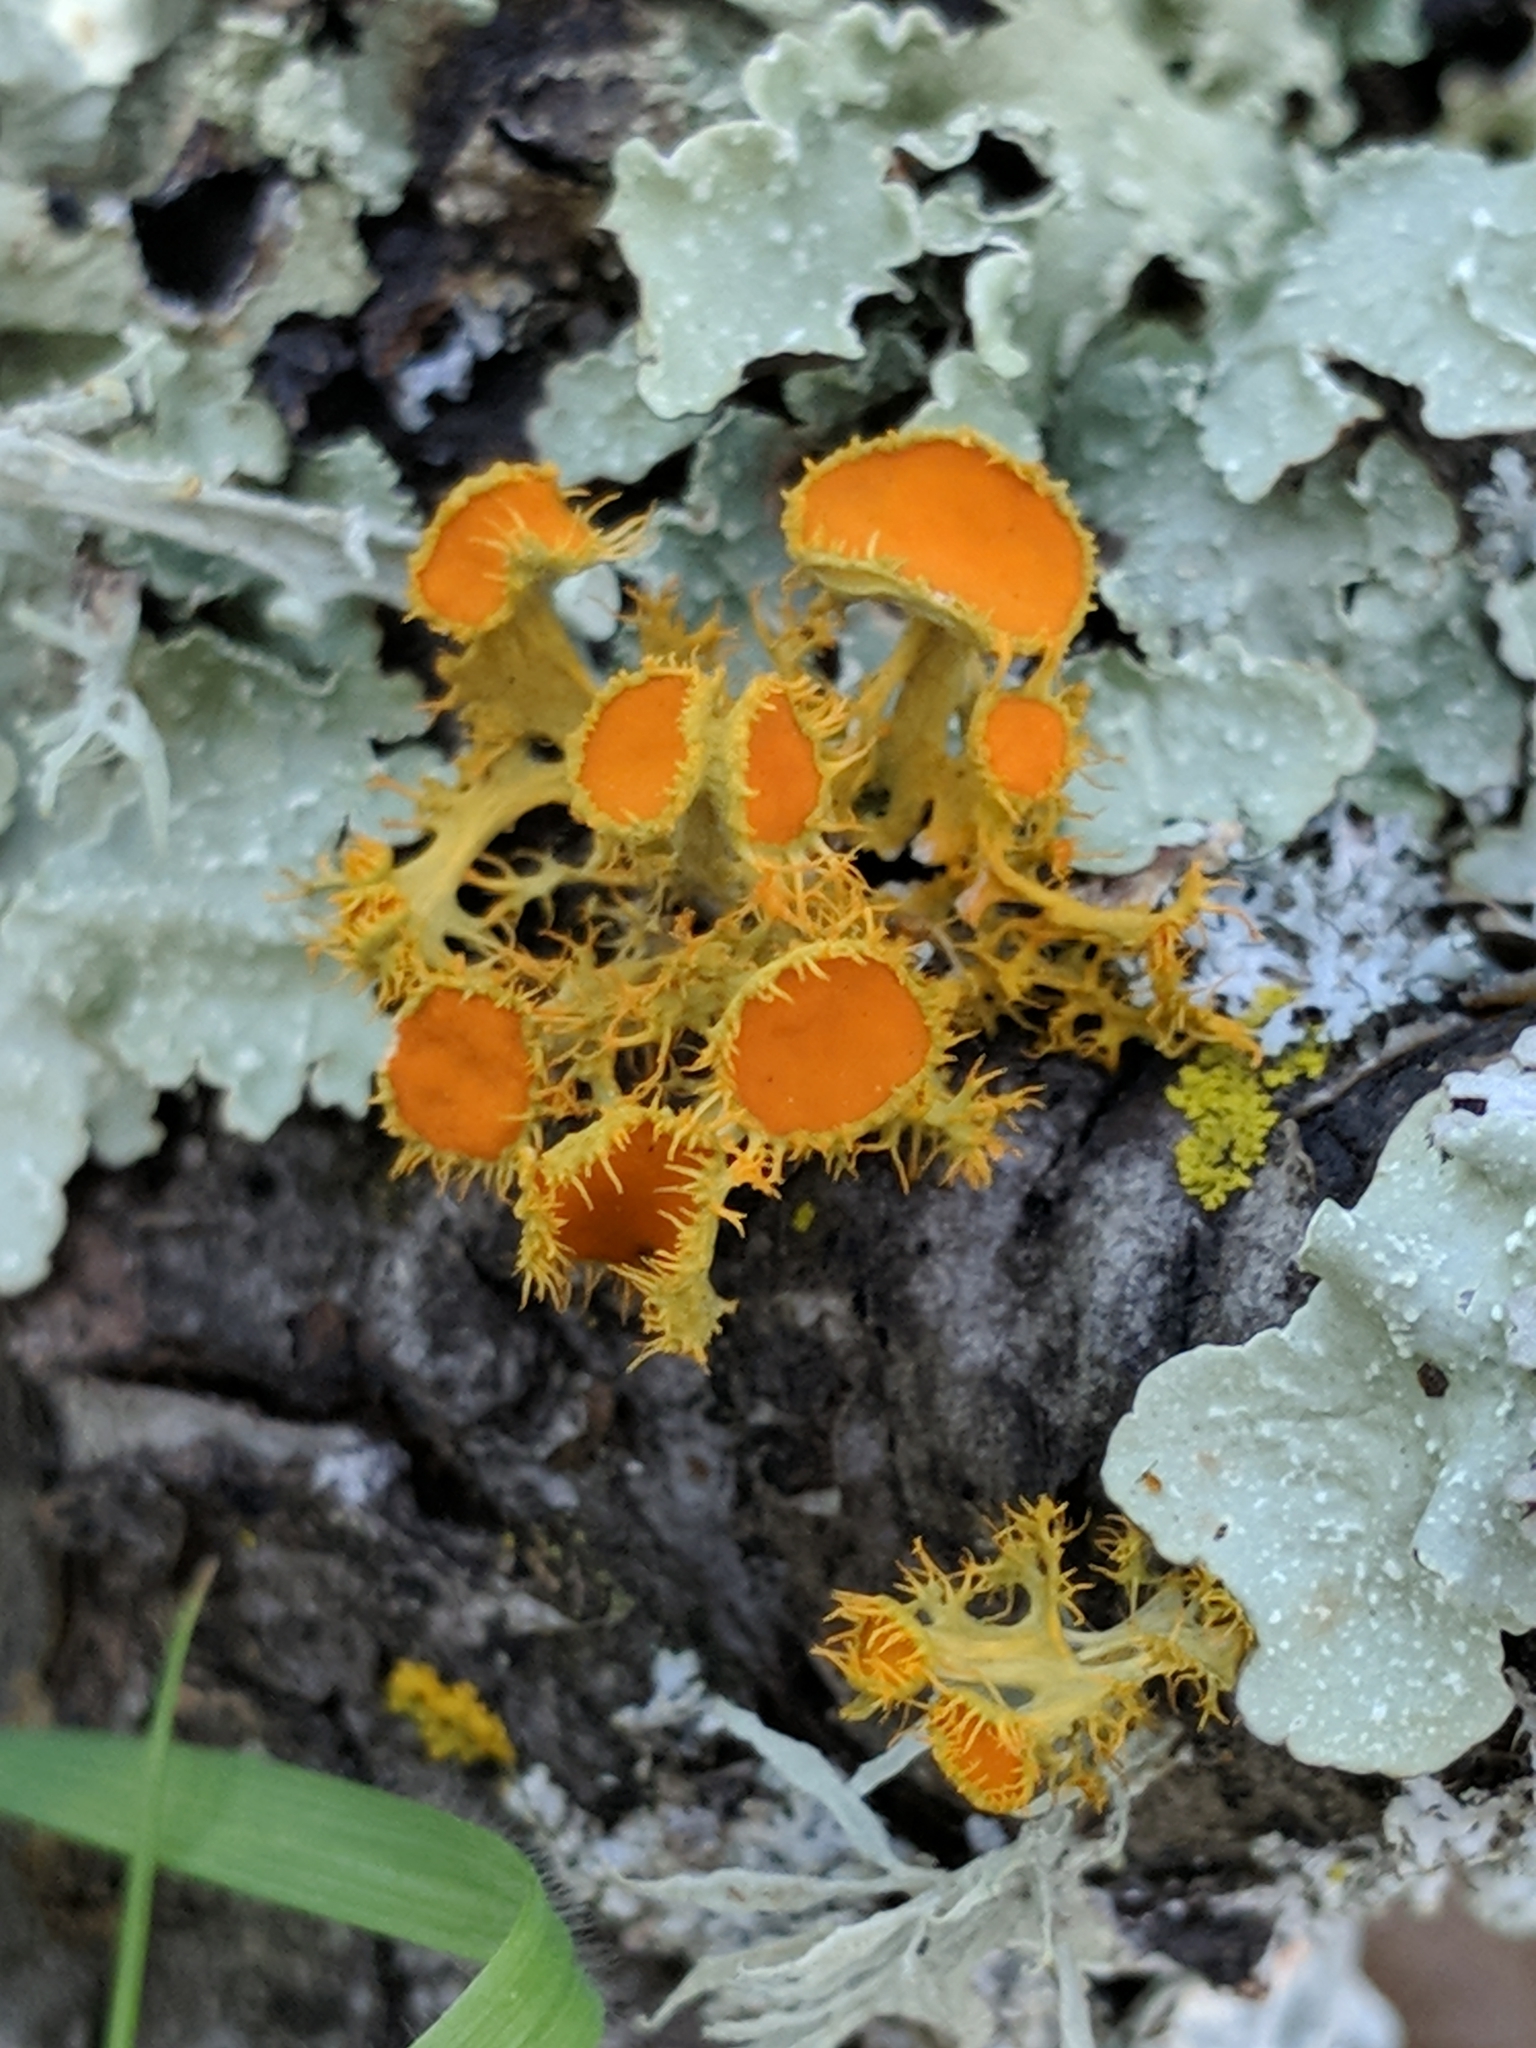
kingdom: Fungi
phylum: Ascomycota
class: Lecanoromycetes
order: Teloschistales
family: Teloschistaceae
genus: Niorma
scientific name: Niorma chrysophthalma
